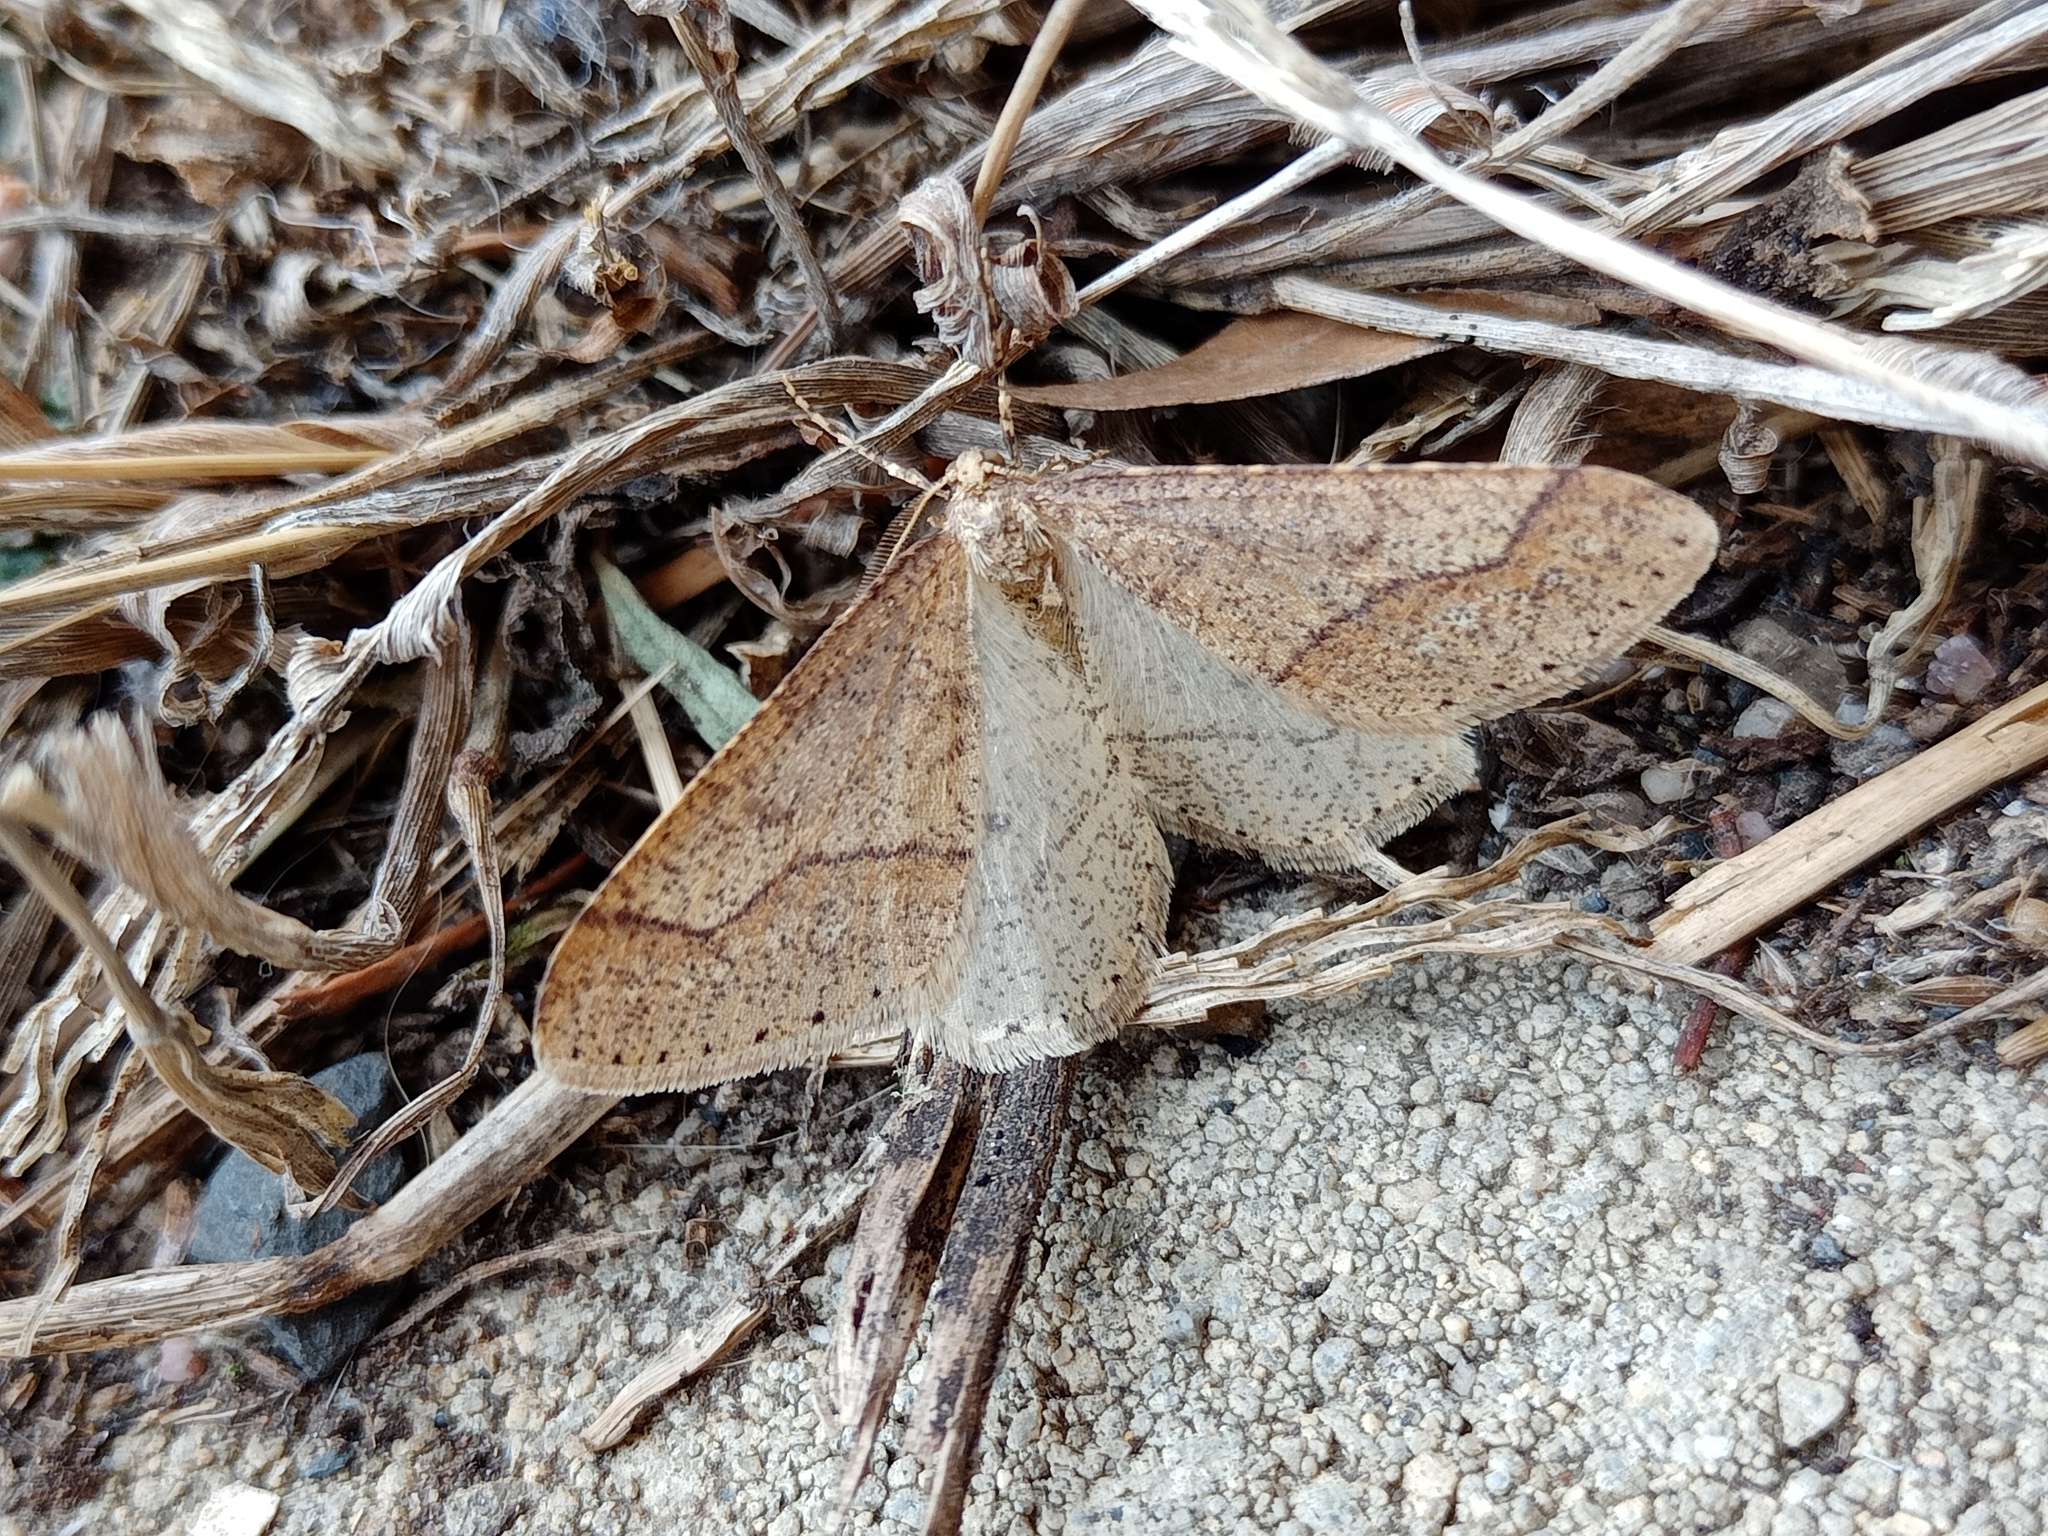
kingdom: Animalia
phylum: Arthropoda
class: Insecta
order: Lepidoptera
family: Geometridae
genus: Agriopis
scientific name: Agriopis marginaria
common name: Dotted border
